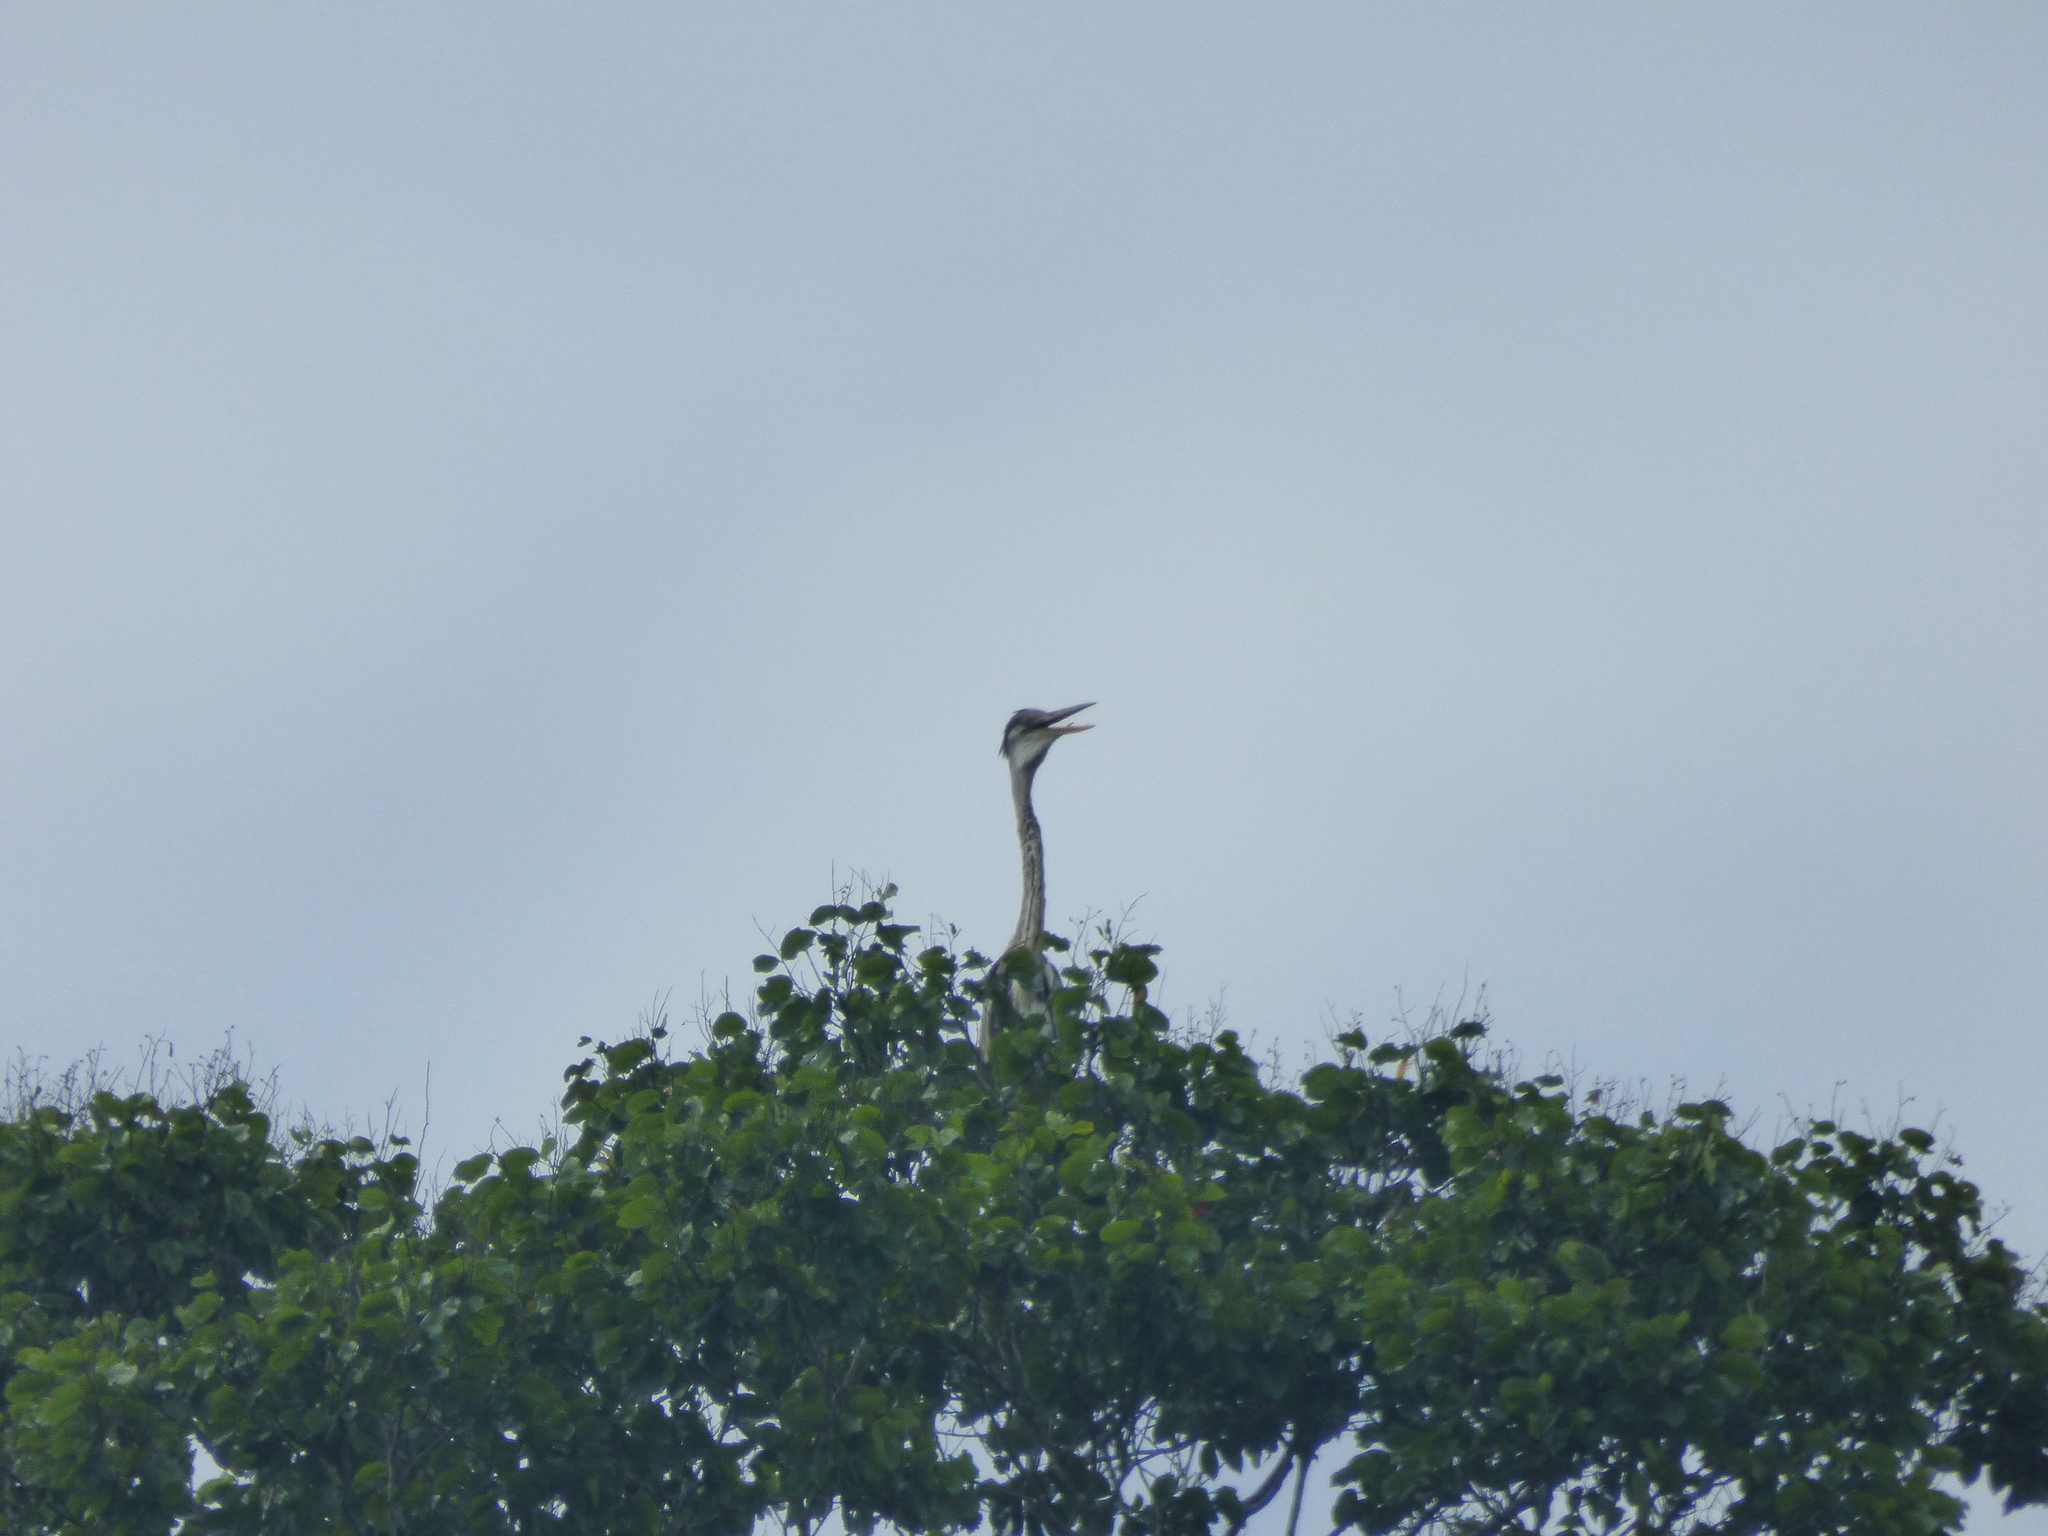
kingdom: Animalia
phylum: Chordata
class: Aves
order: Pelecaniformes
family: Ardeidae
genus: Ardea
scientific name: Ardea cocoi
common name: Cocoi heron
